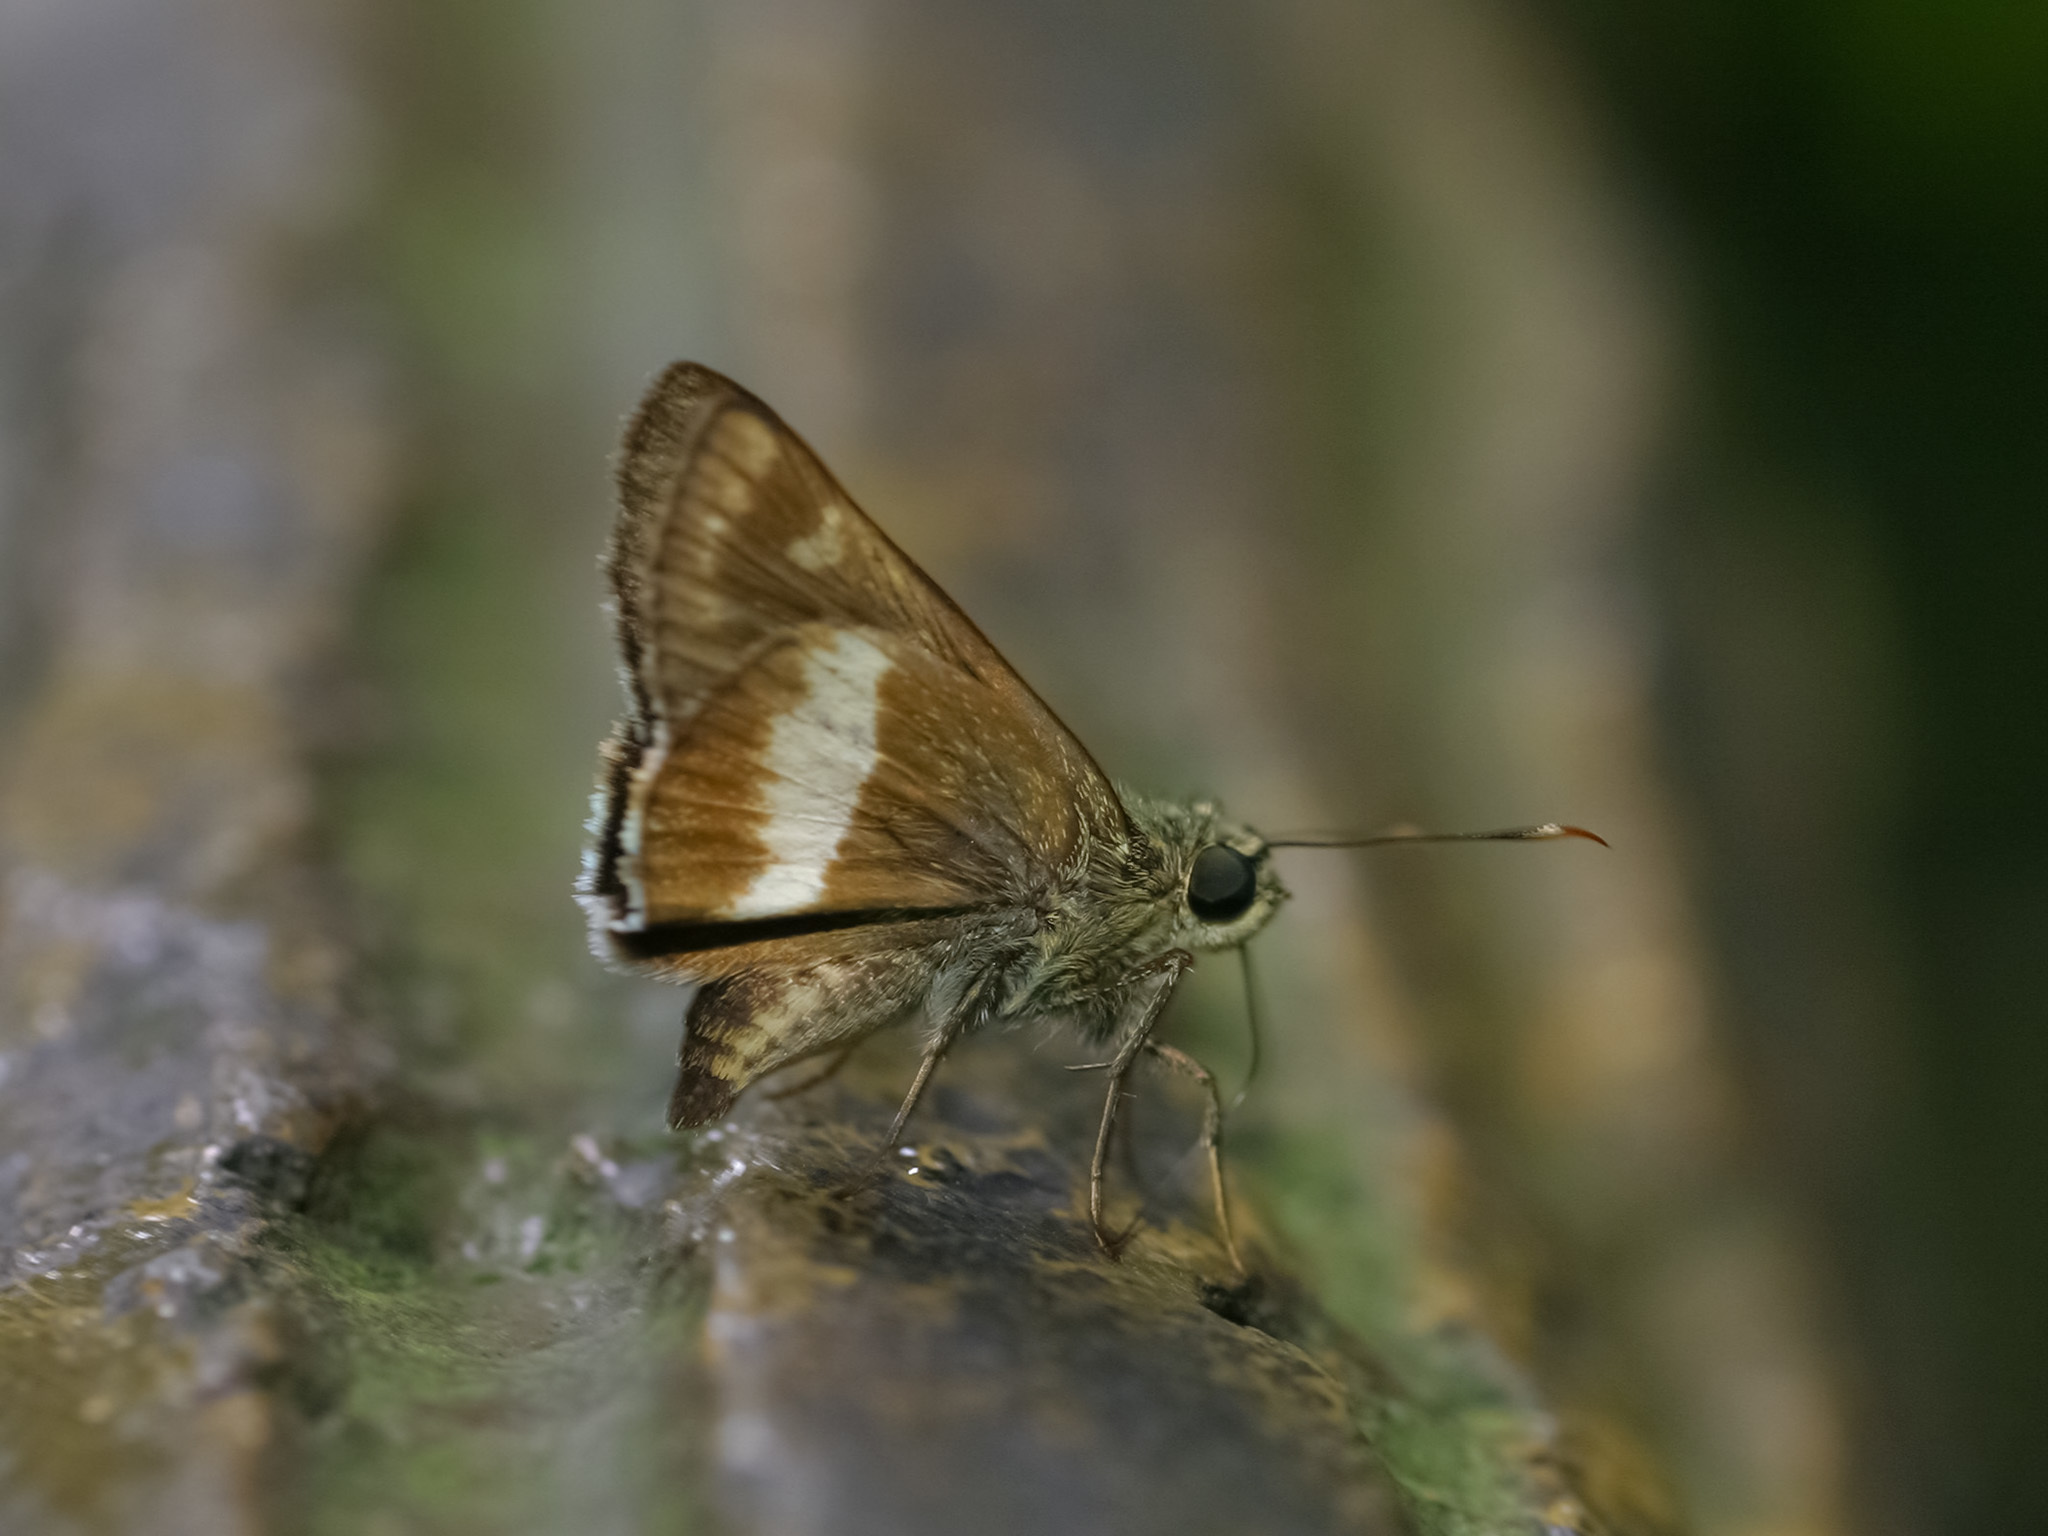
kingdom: Animalia
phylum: Arthropoda
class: Insecta
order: Lepidoptera
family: Hesperiidae
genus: Halpe
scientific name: Halpe
